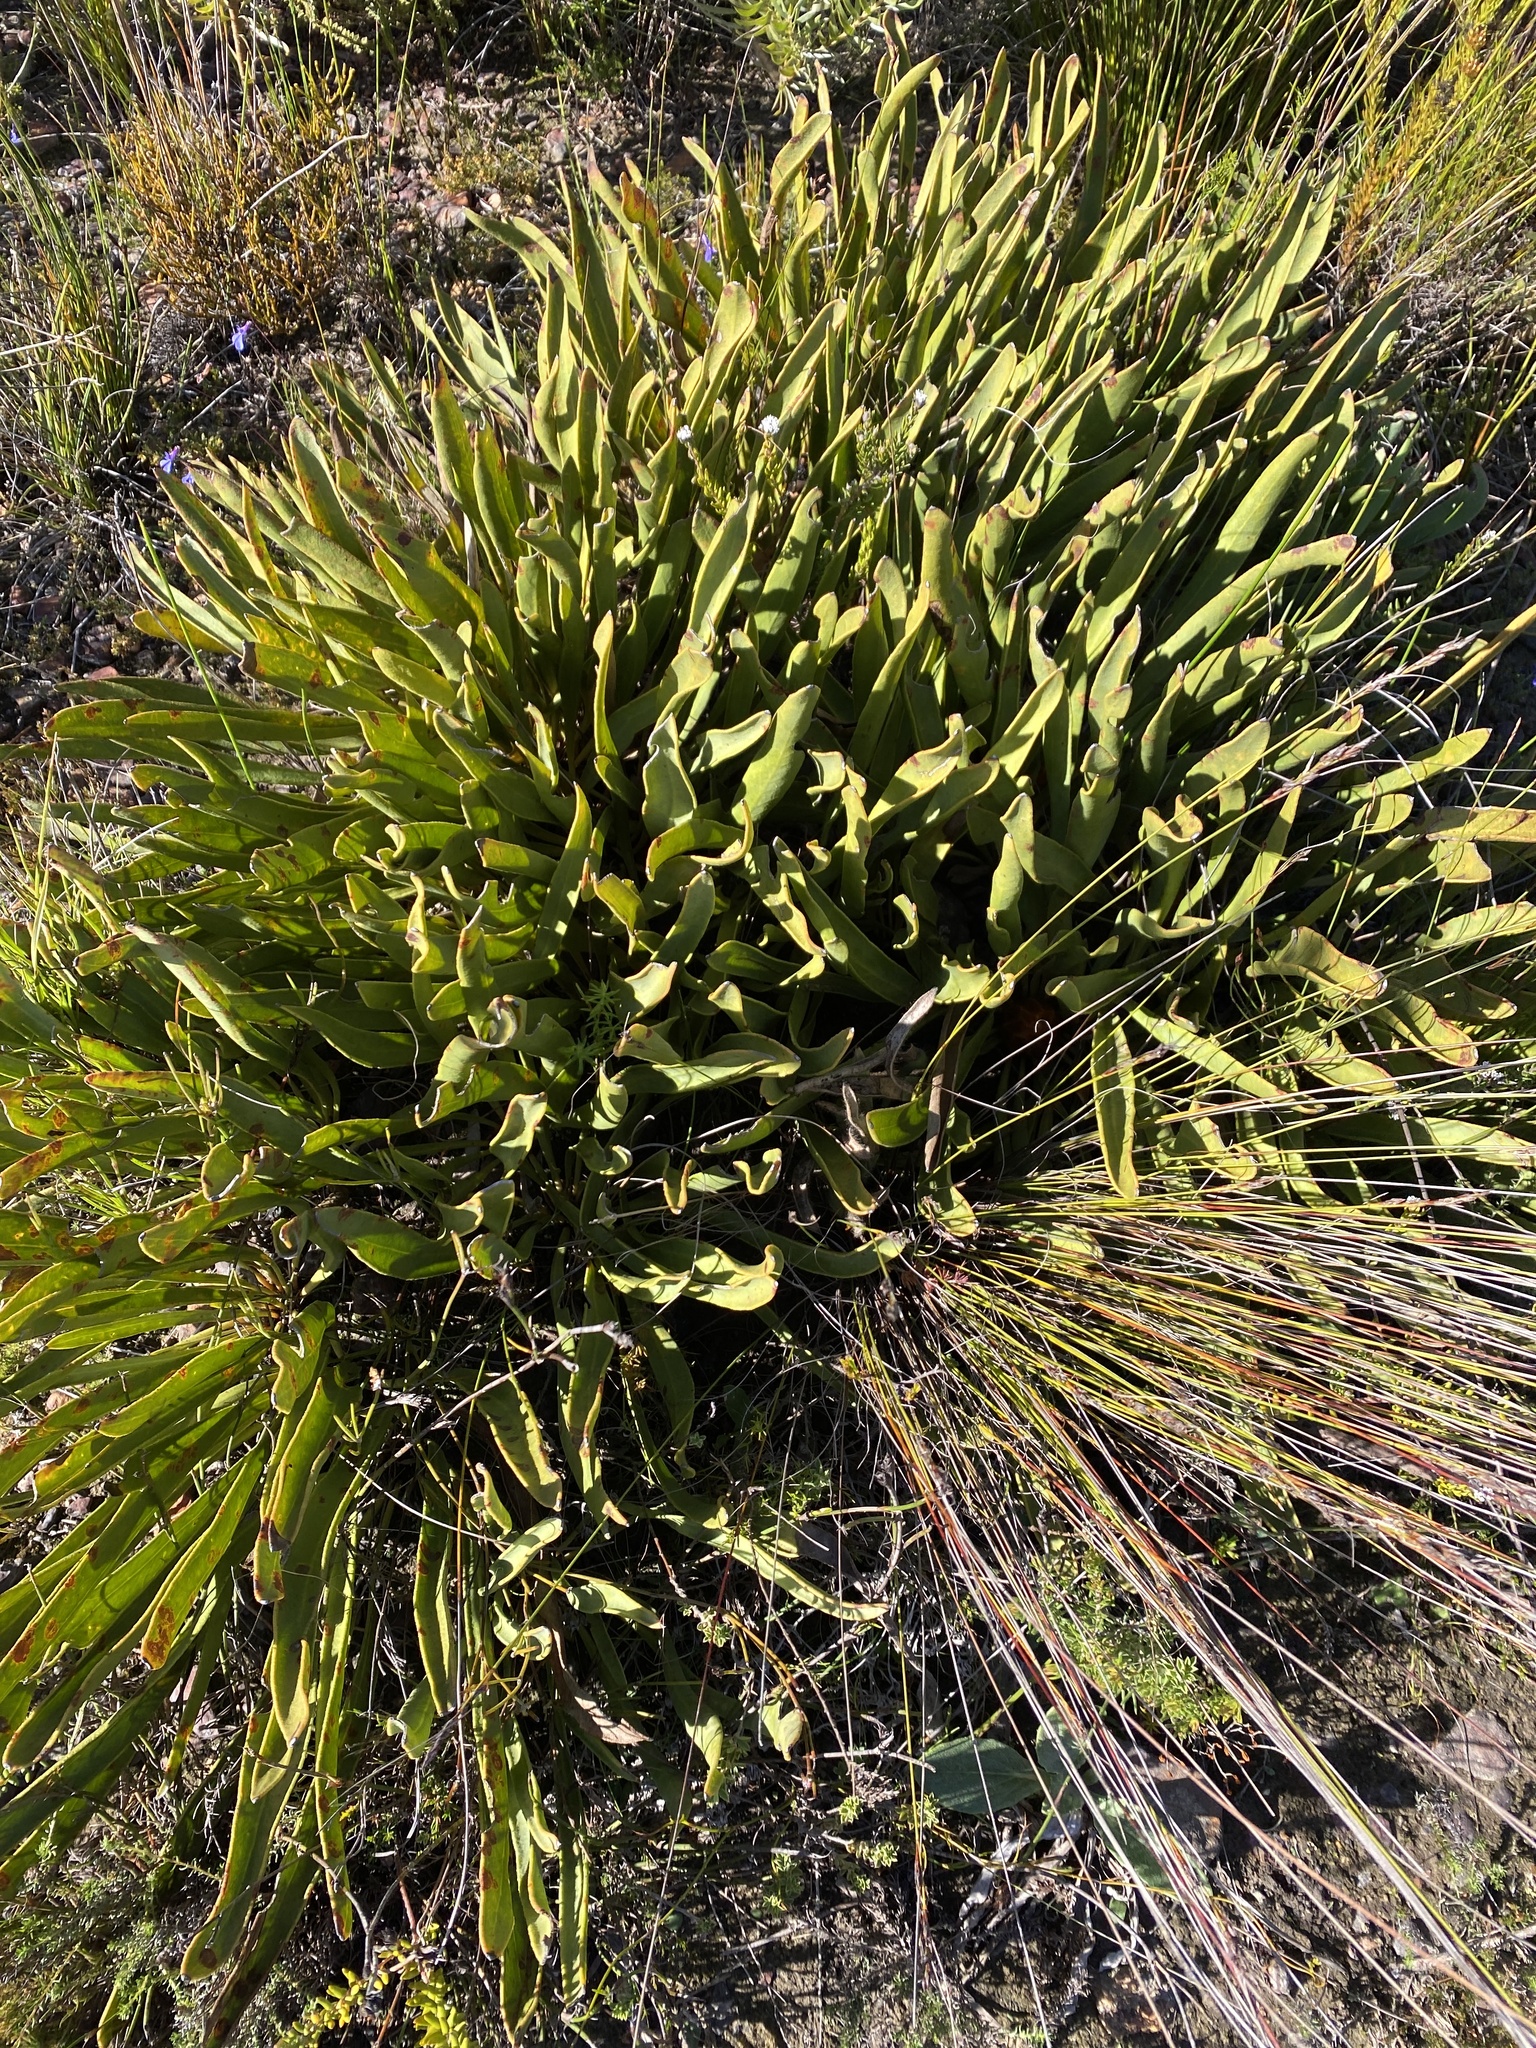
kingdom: Plantae
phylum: Tracheophyta
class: Magnoliopsida
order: Proteales
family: Proteaceae
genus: Protea
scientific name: Protea scabra
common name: Sandpaper-leaf sugarbush
